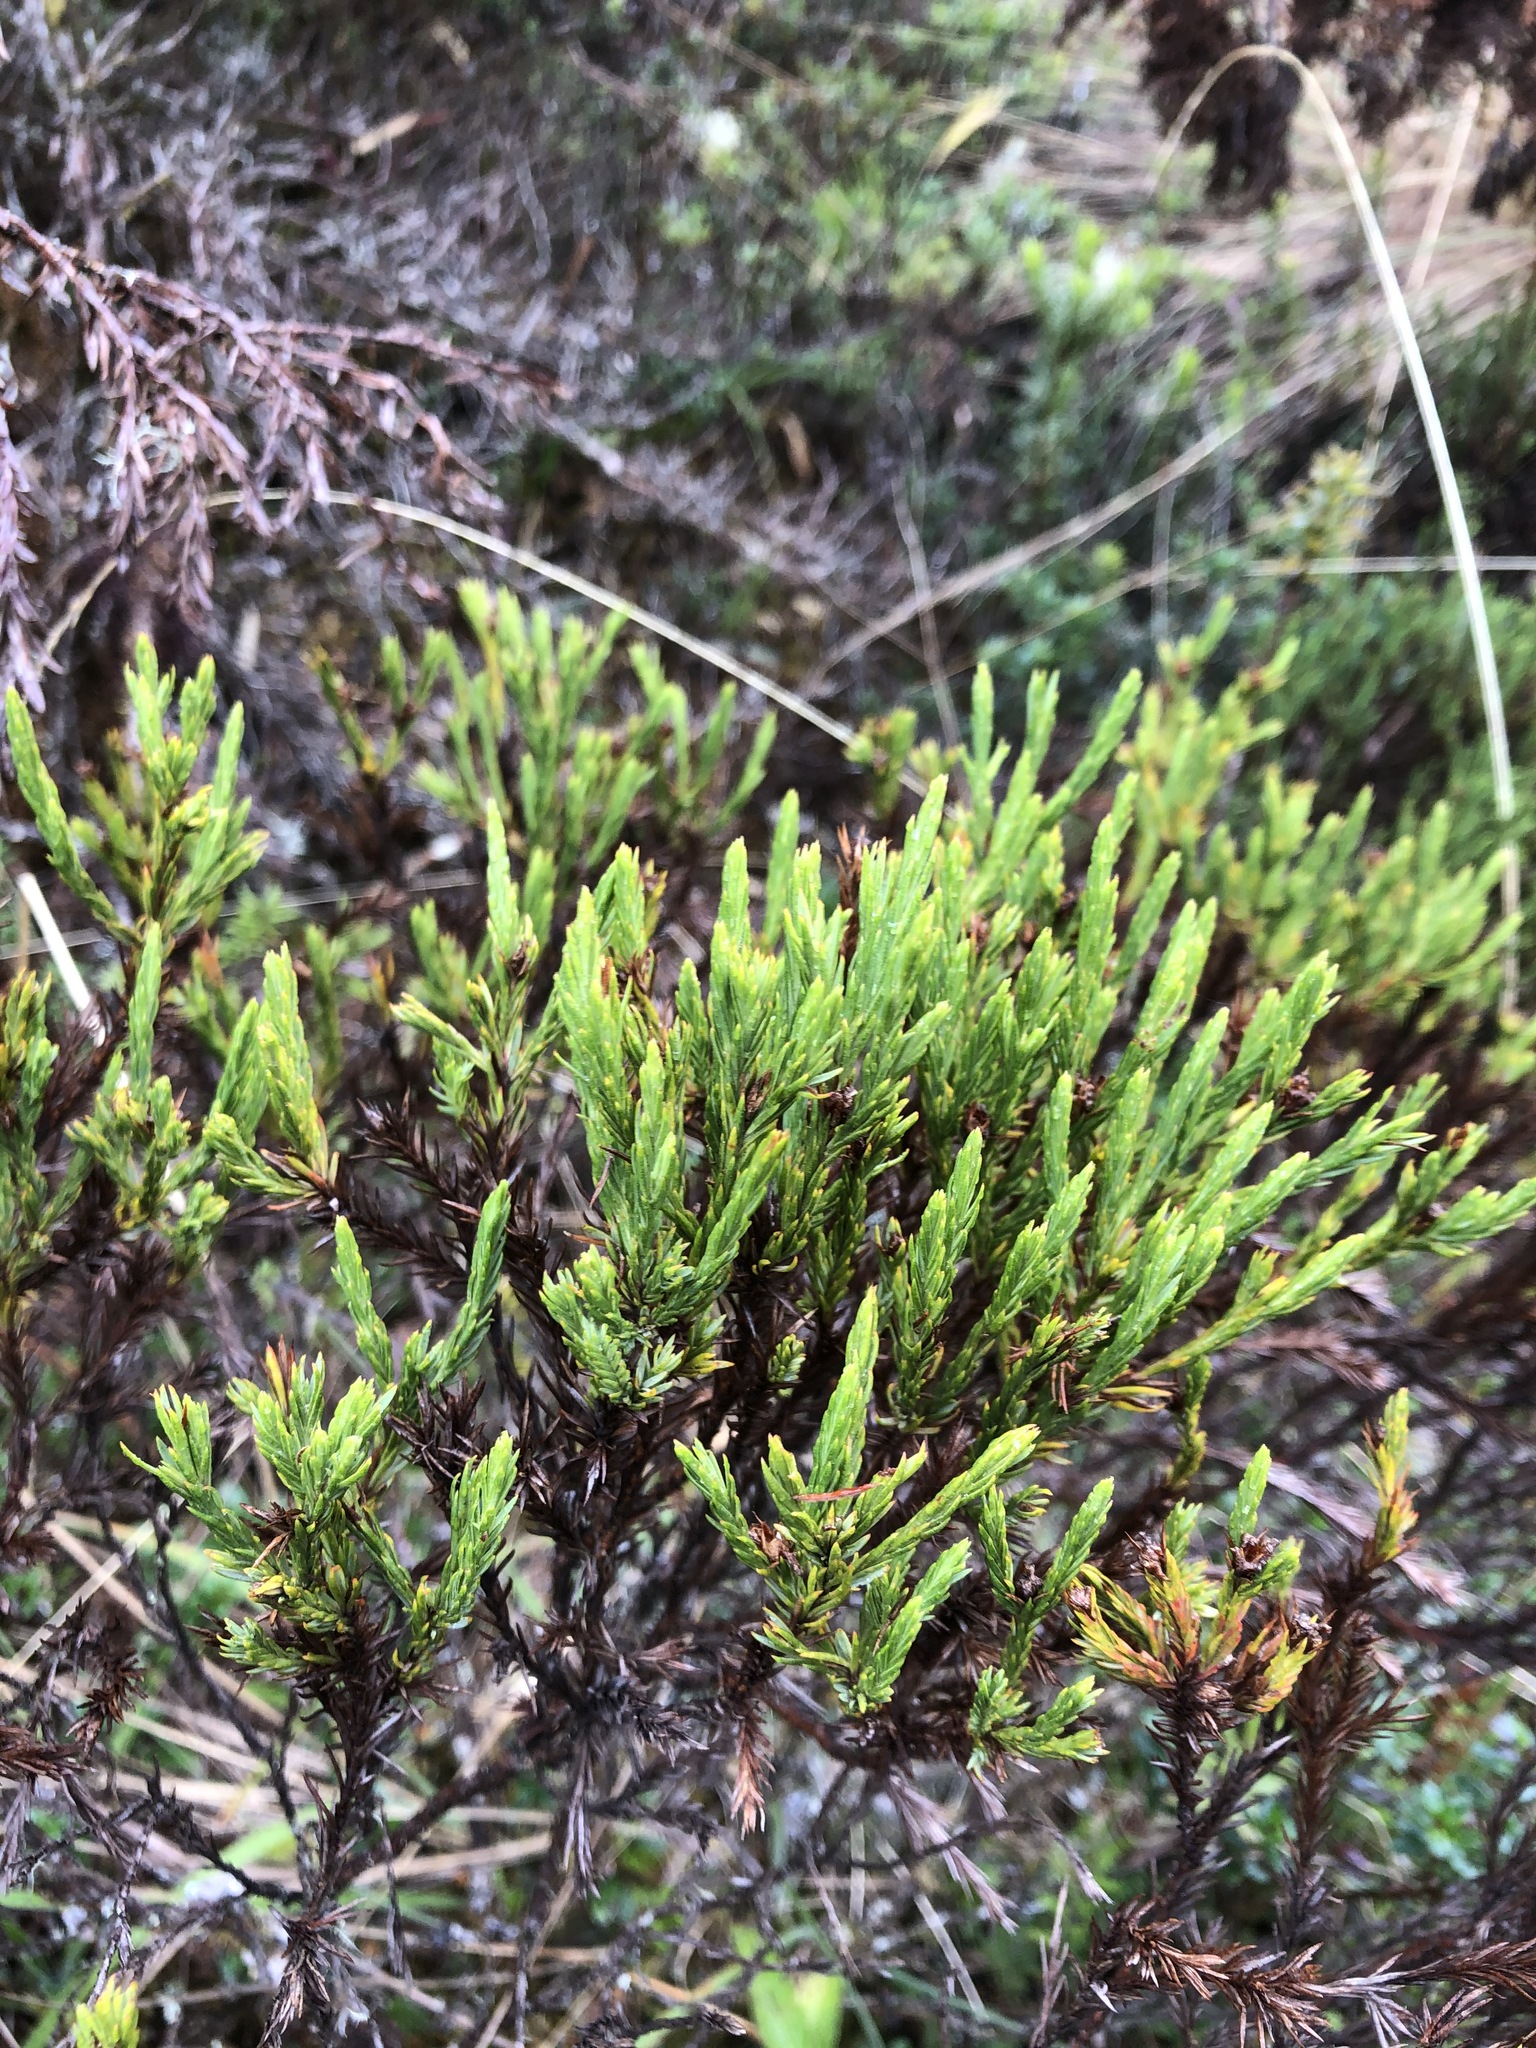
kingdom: Plantae
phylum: Tracheophyta
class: Magnoliopsida
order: Malpighiales
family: Hypericaceae
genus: Hypericum
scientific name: Hypericum costaricense
